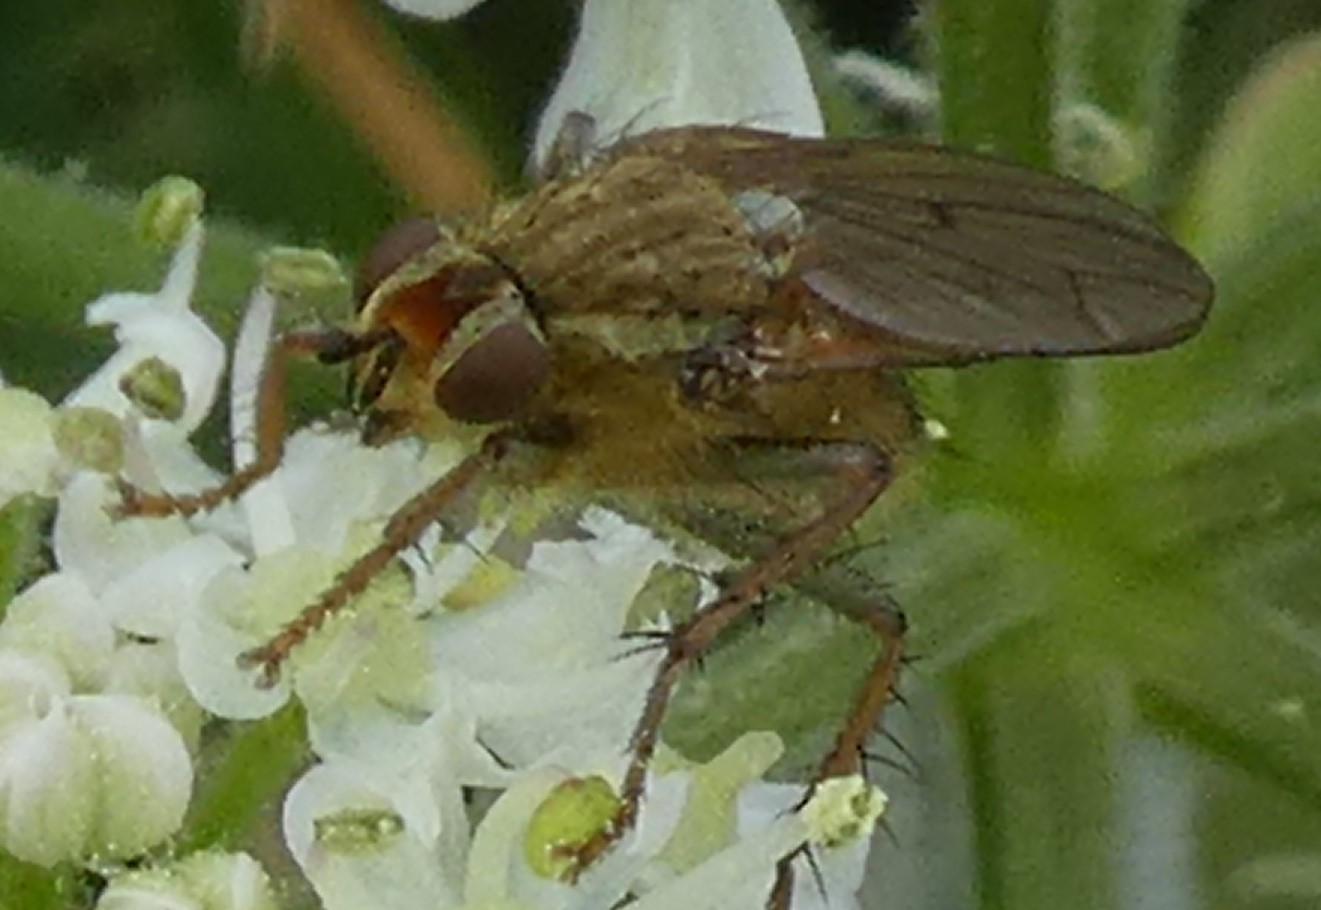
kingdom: Animalia
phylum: Arthropoda
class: Insecta
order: Diptera
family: Scathophagidae
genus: Scathophaga
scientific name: Scathophaga stercoraria
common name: Yellow dung fly
